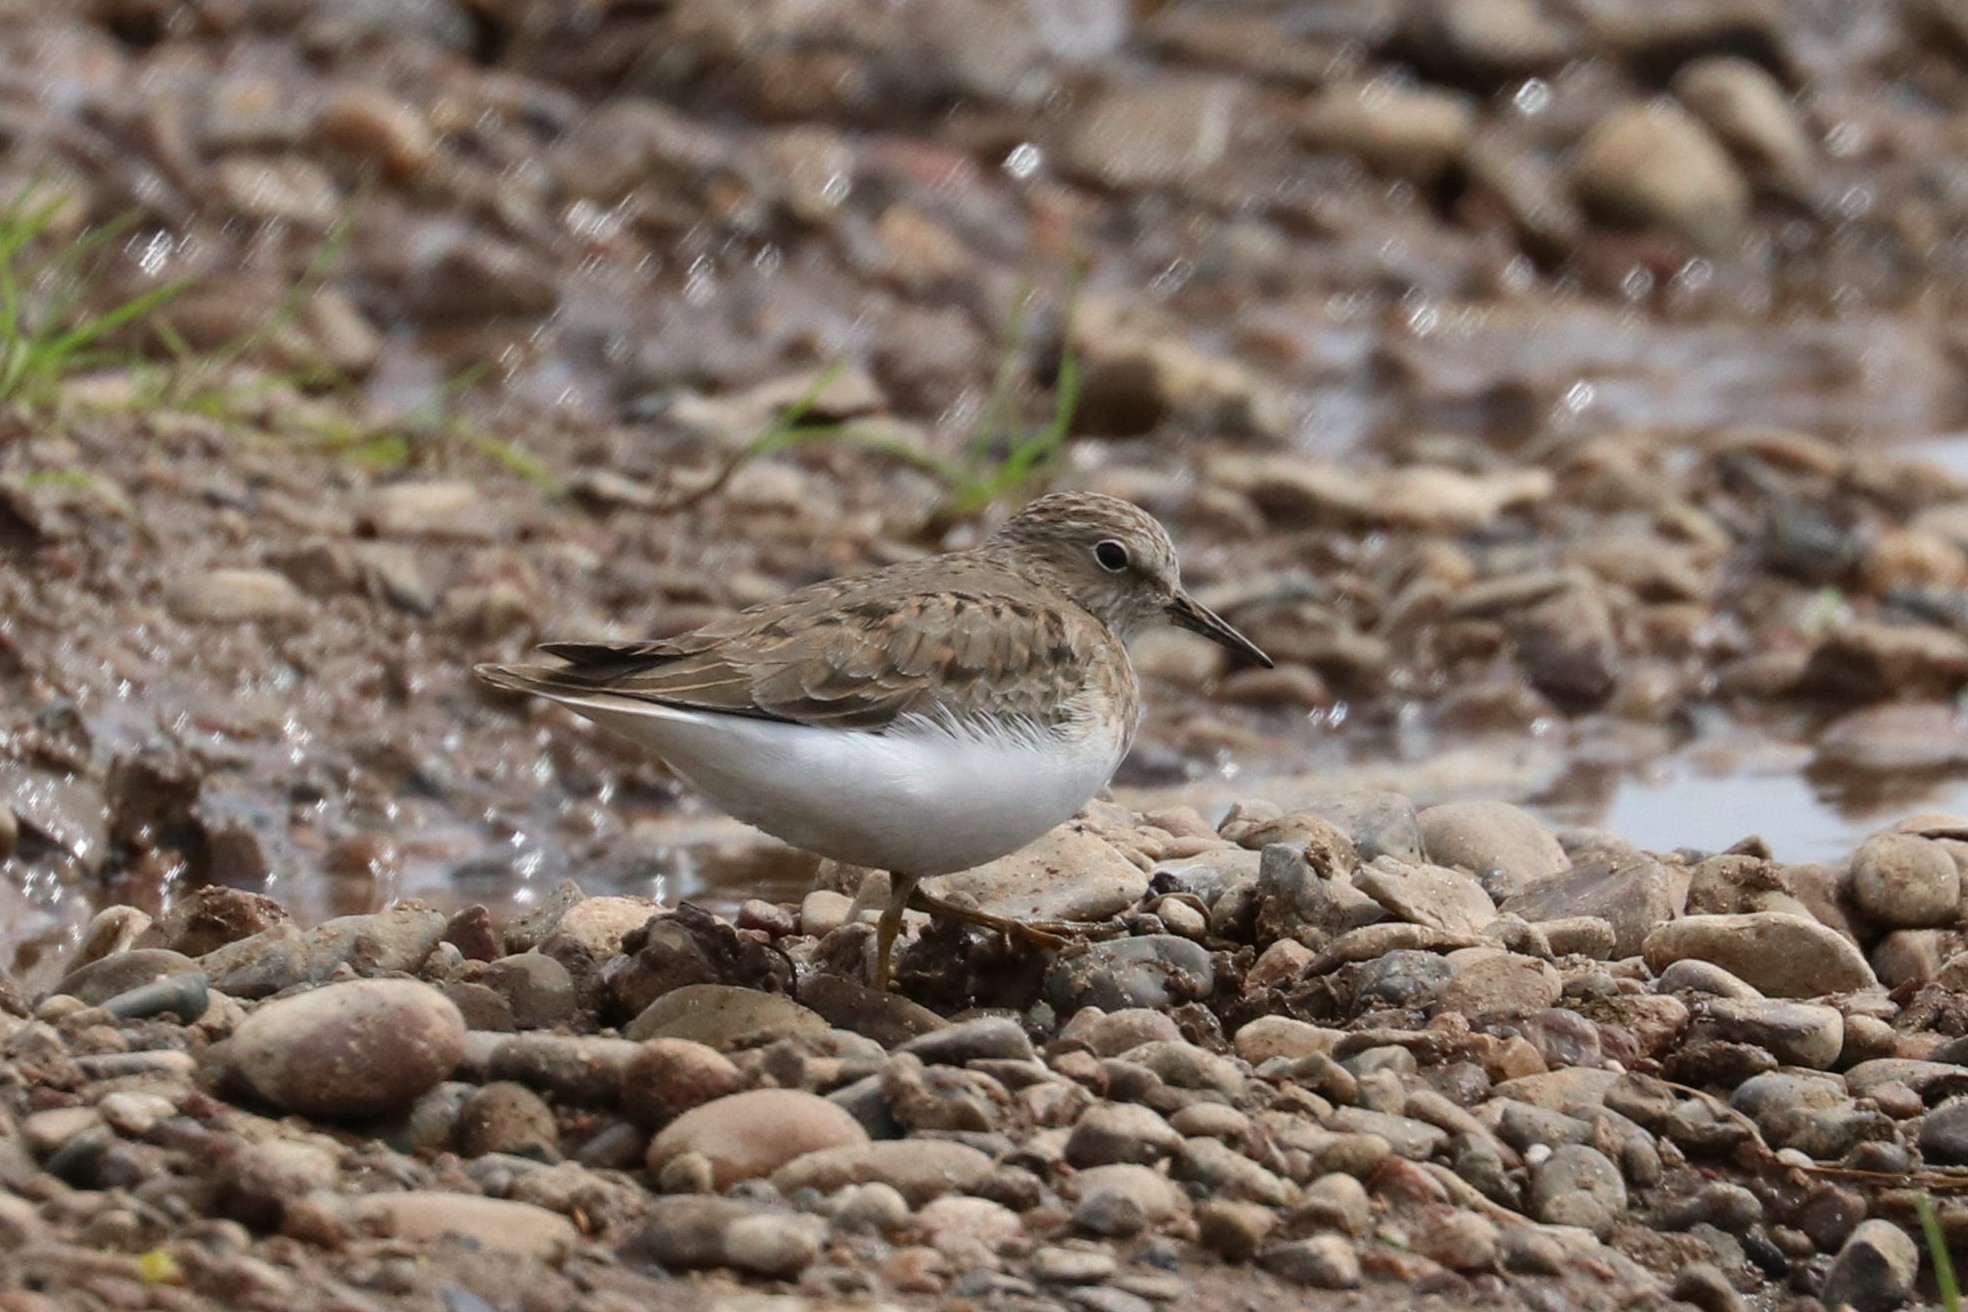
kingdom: Animalia
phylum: Chordata
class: Aves
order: Charadriiformes
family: Scolopacidae
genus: Calidris
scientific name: Calidris temminckii
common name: Temminck's stint
